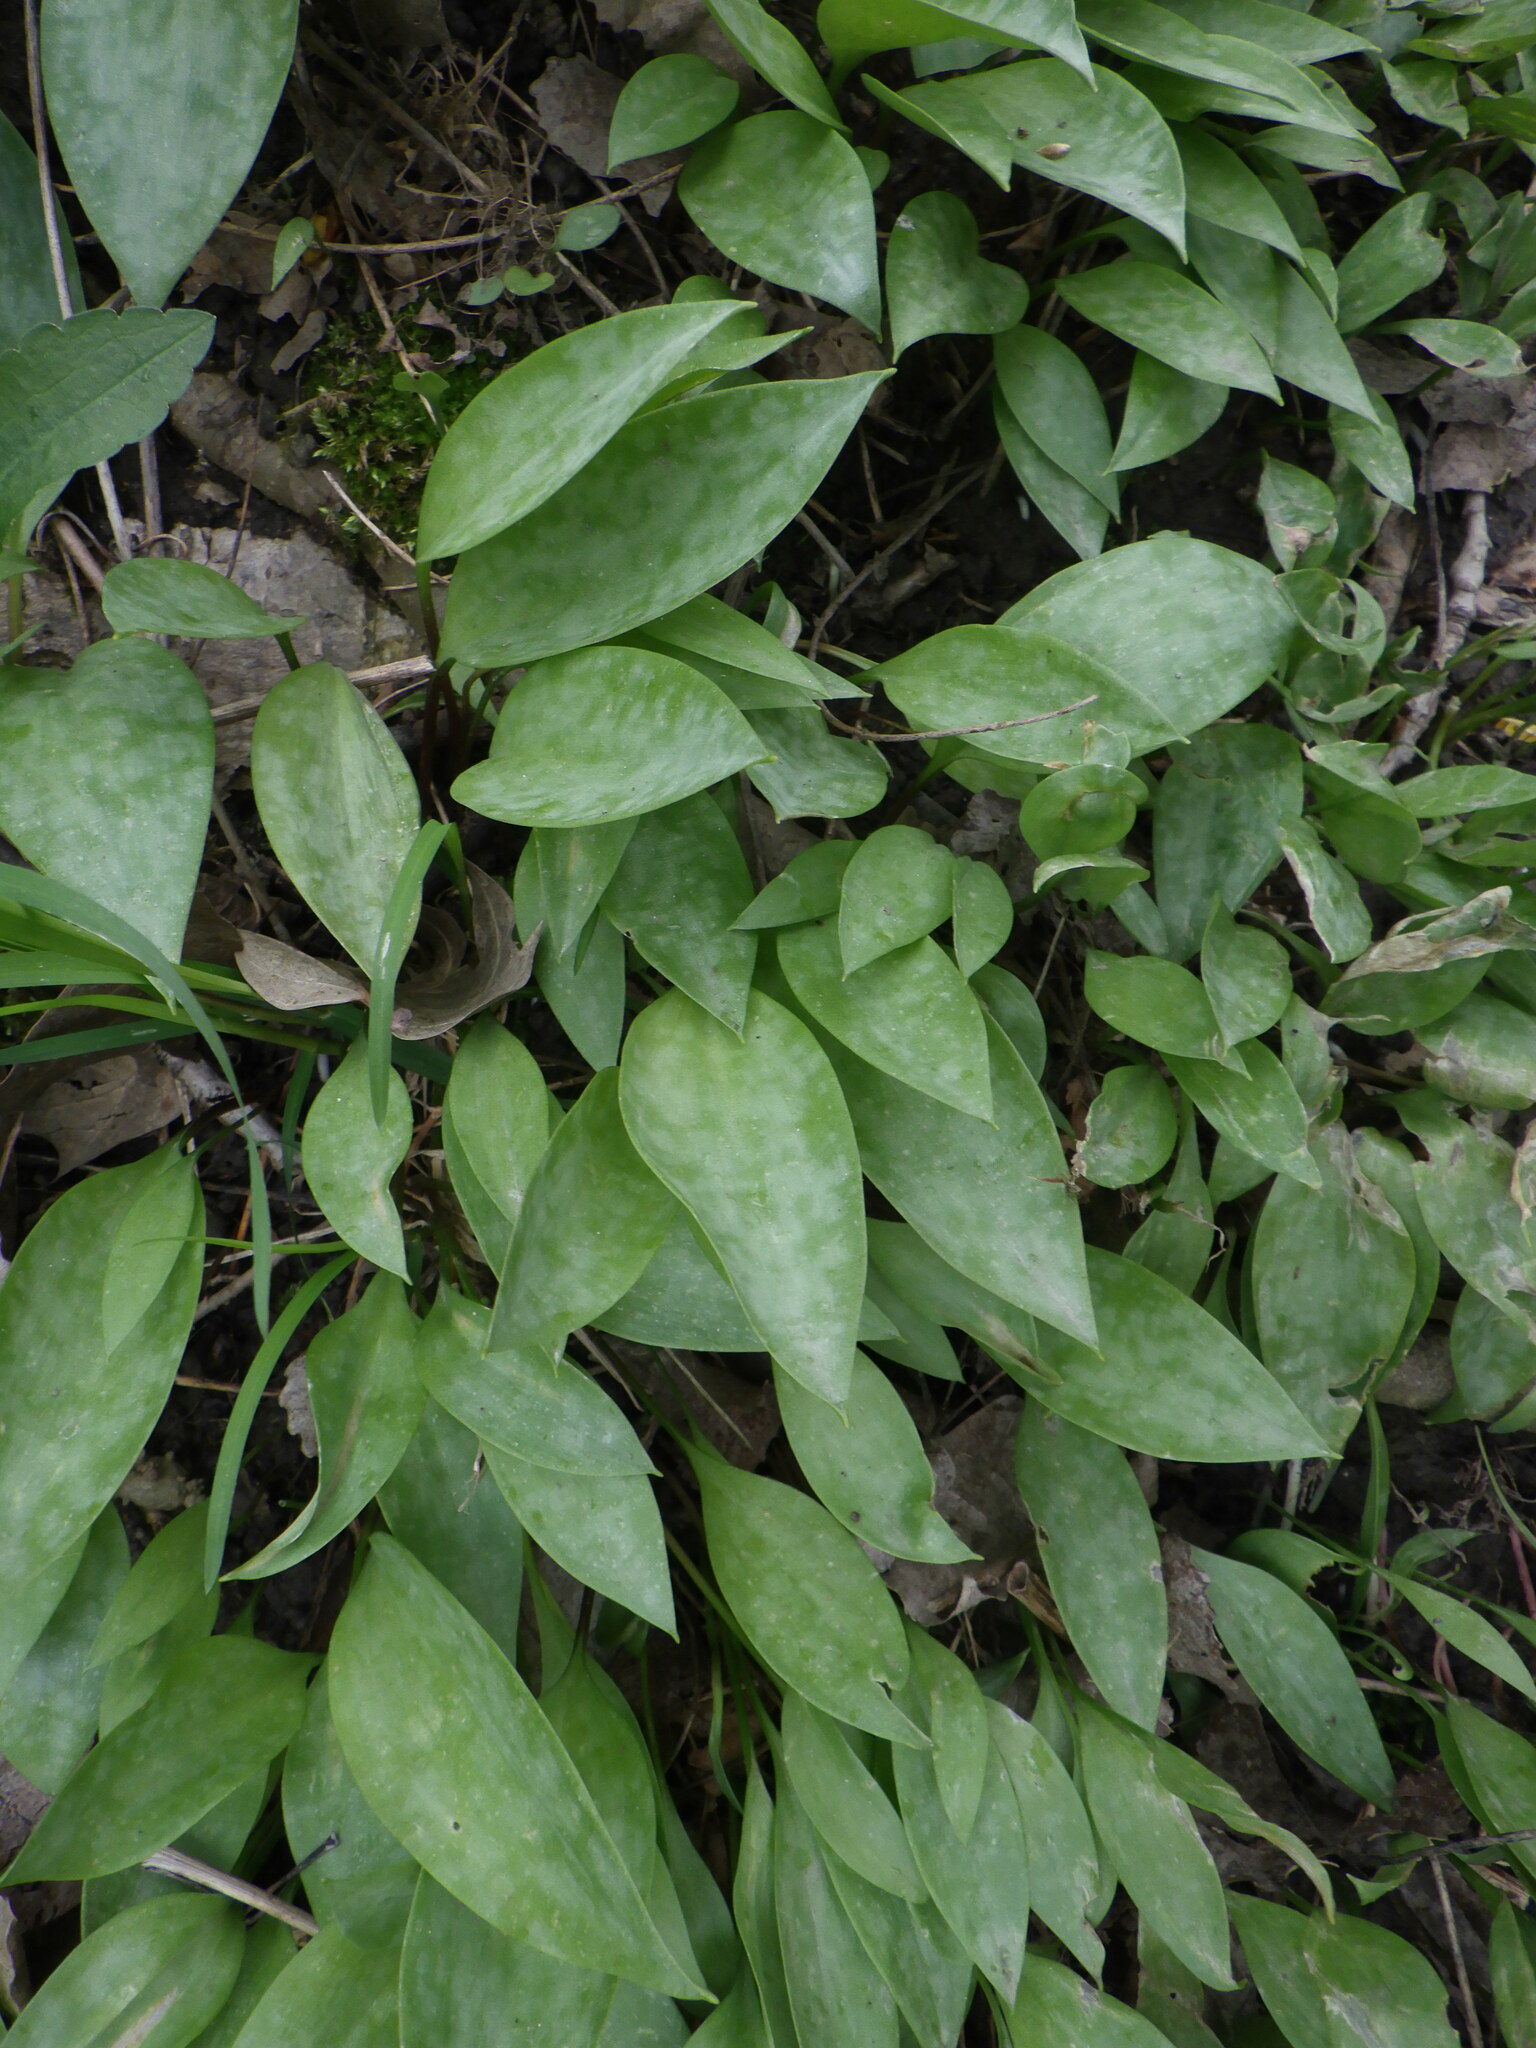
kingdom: Plantae
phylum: Tracheophyta
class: Liliopsida
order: Liliales
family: Liliaceae
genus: Erythronium
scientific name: Erythronium
